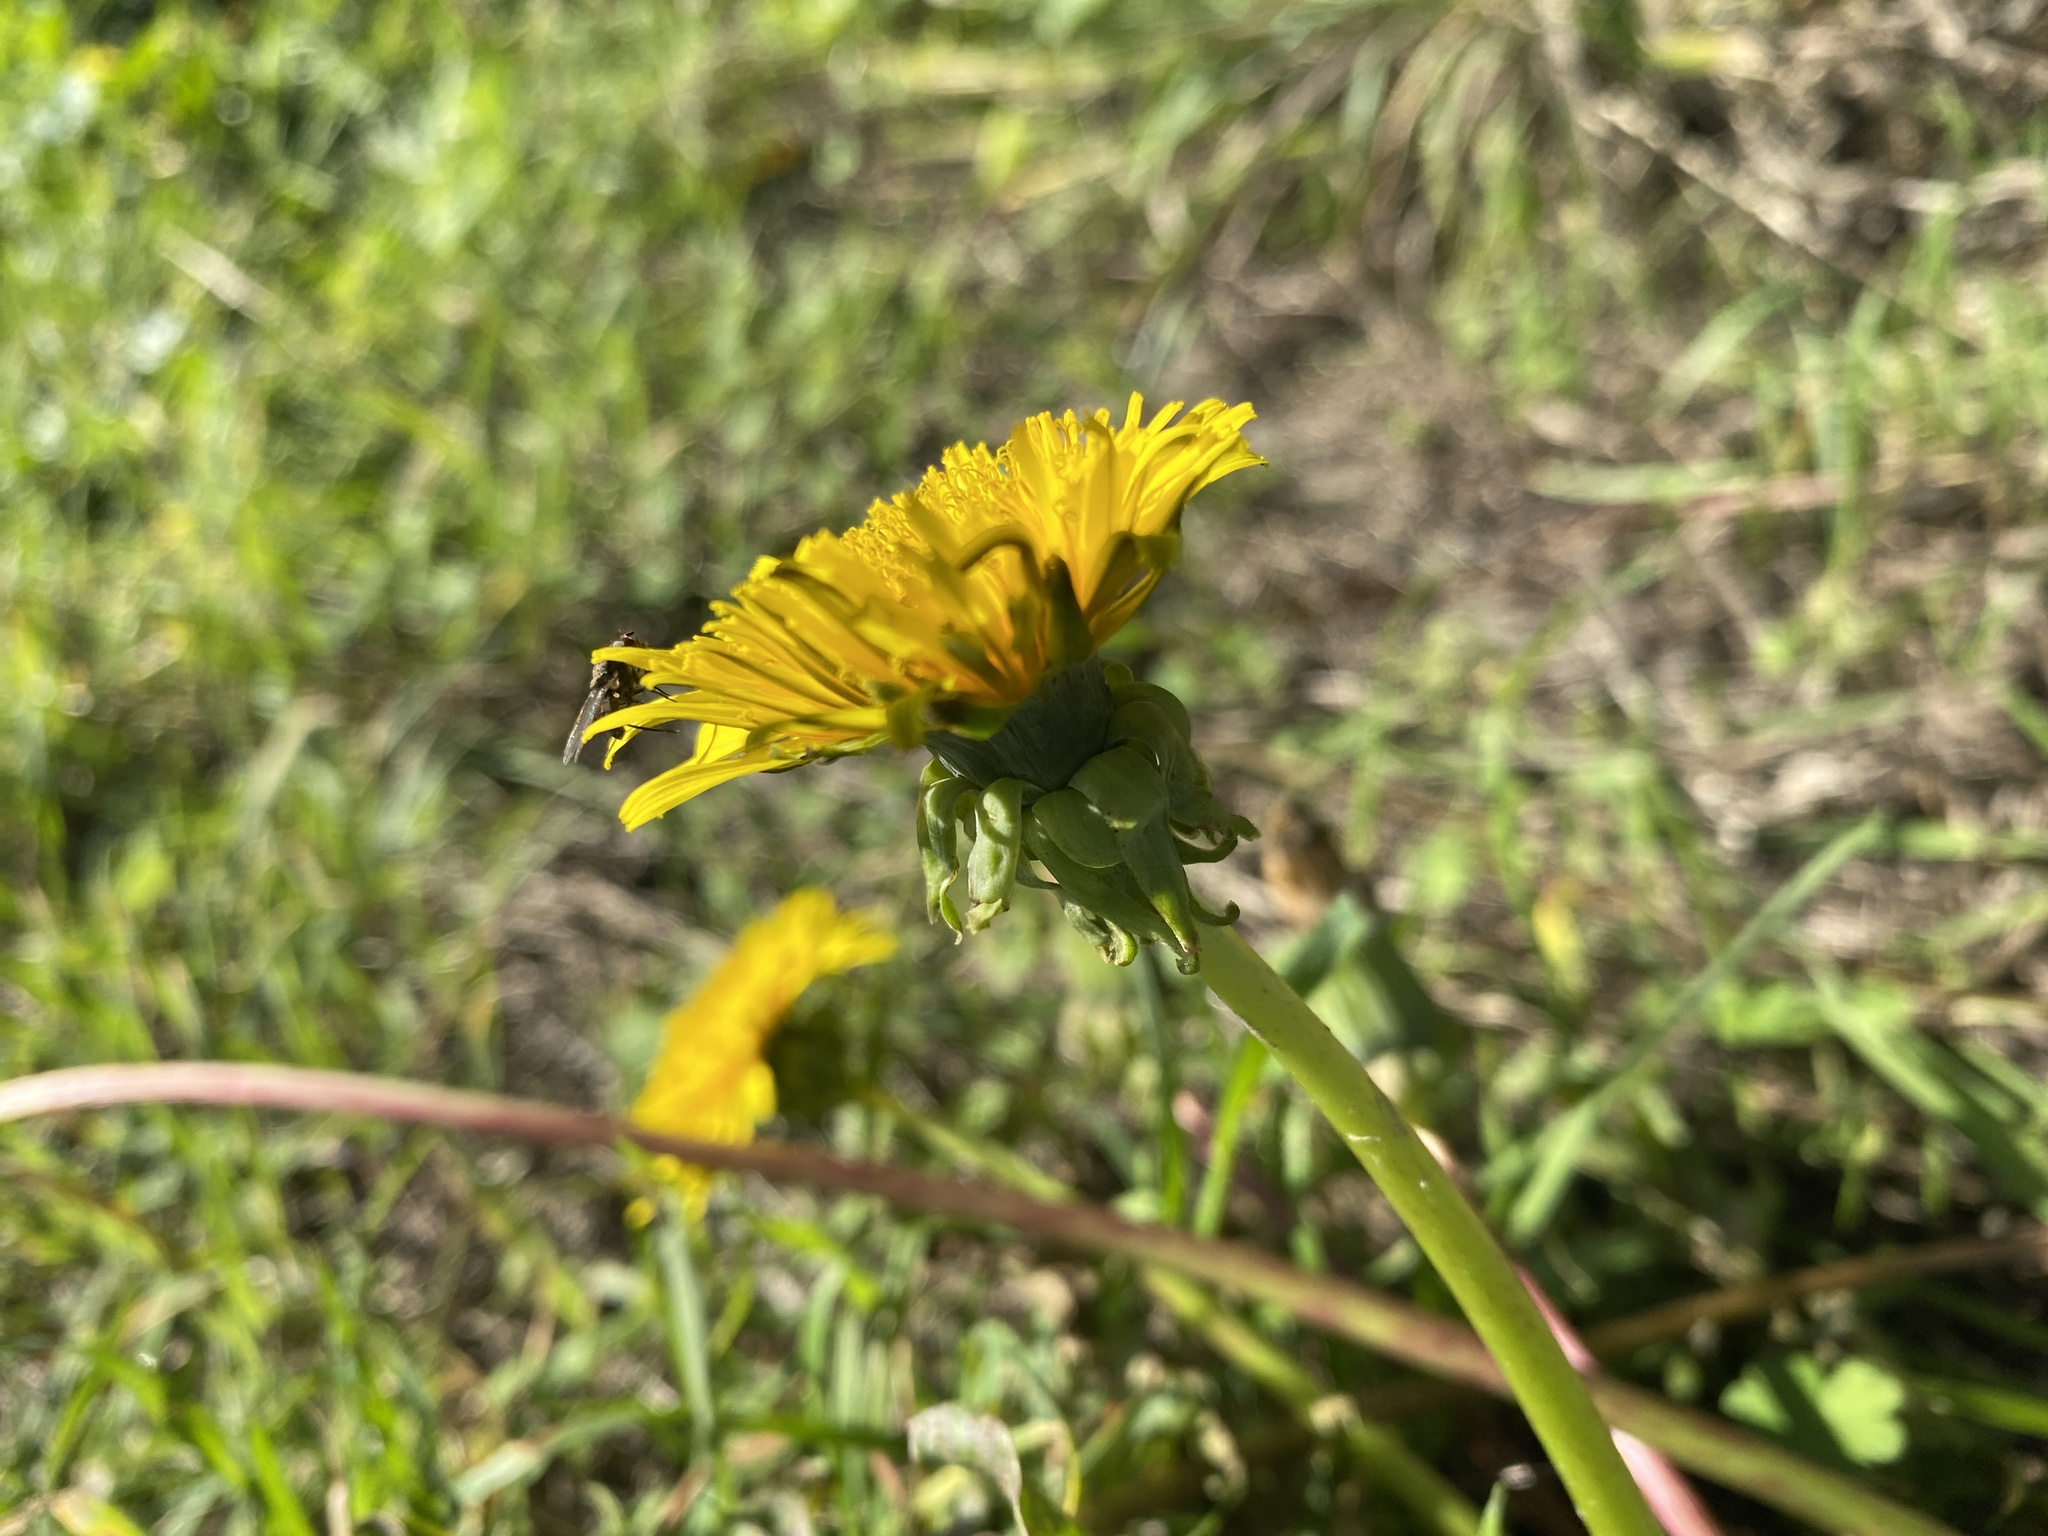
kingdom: Plantae
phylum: Tracheophyta
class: Magnoliopsida
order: Asterales
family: Asteraceae
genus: Taraxacum
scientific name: Taraxacum officinale
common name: Common dandelion
